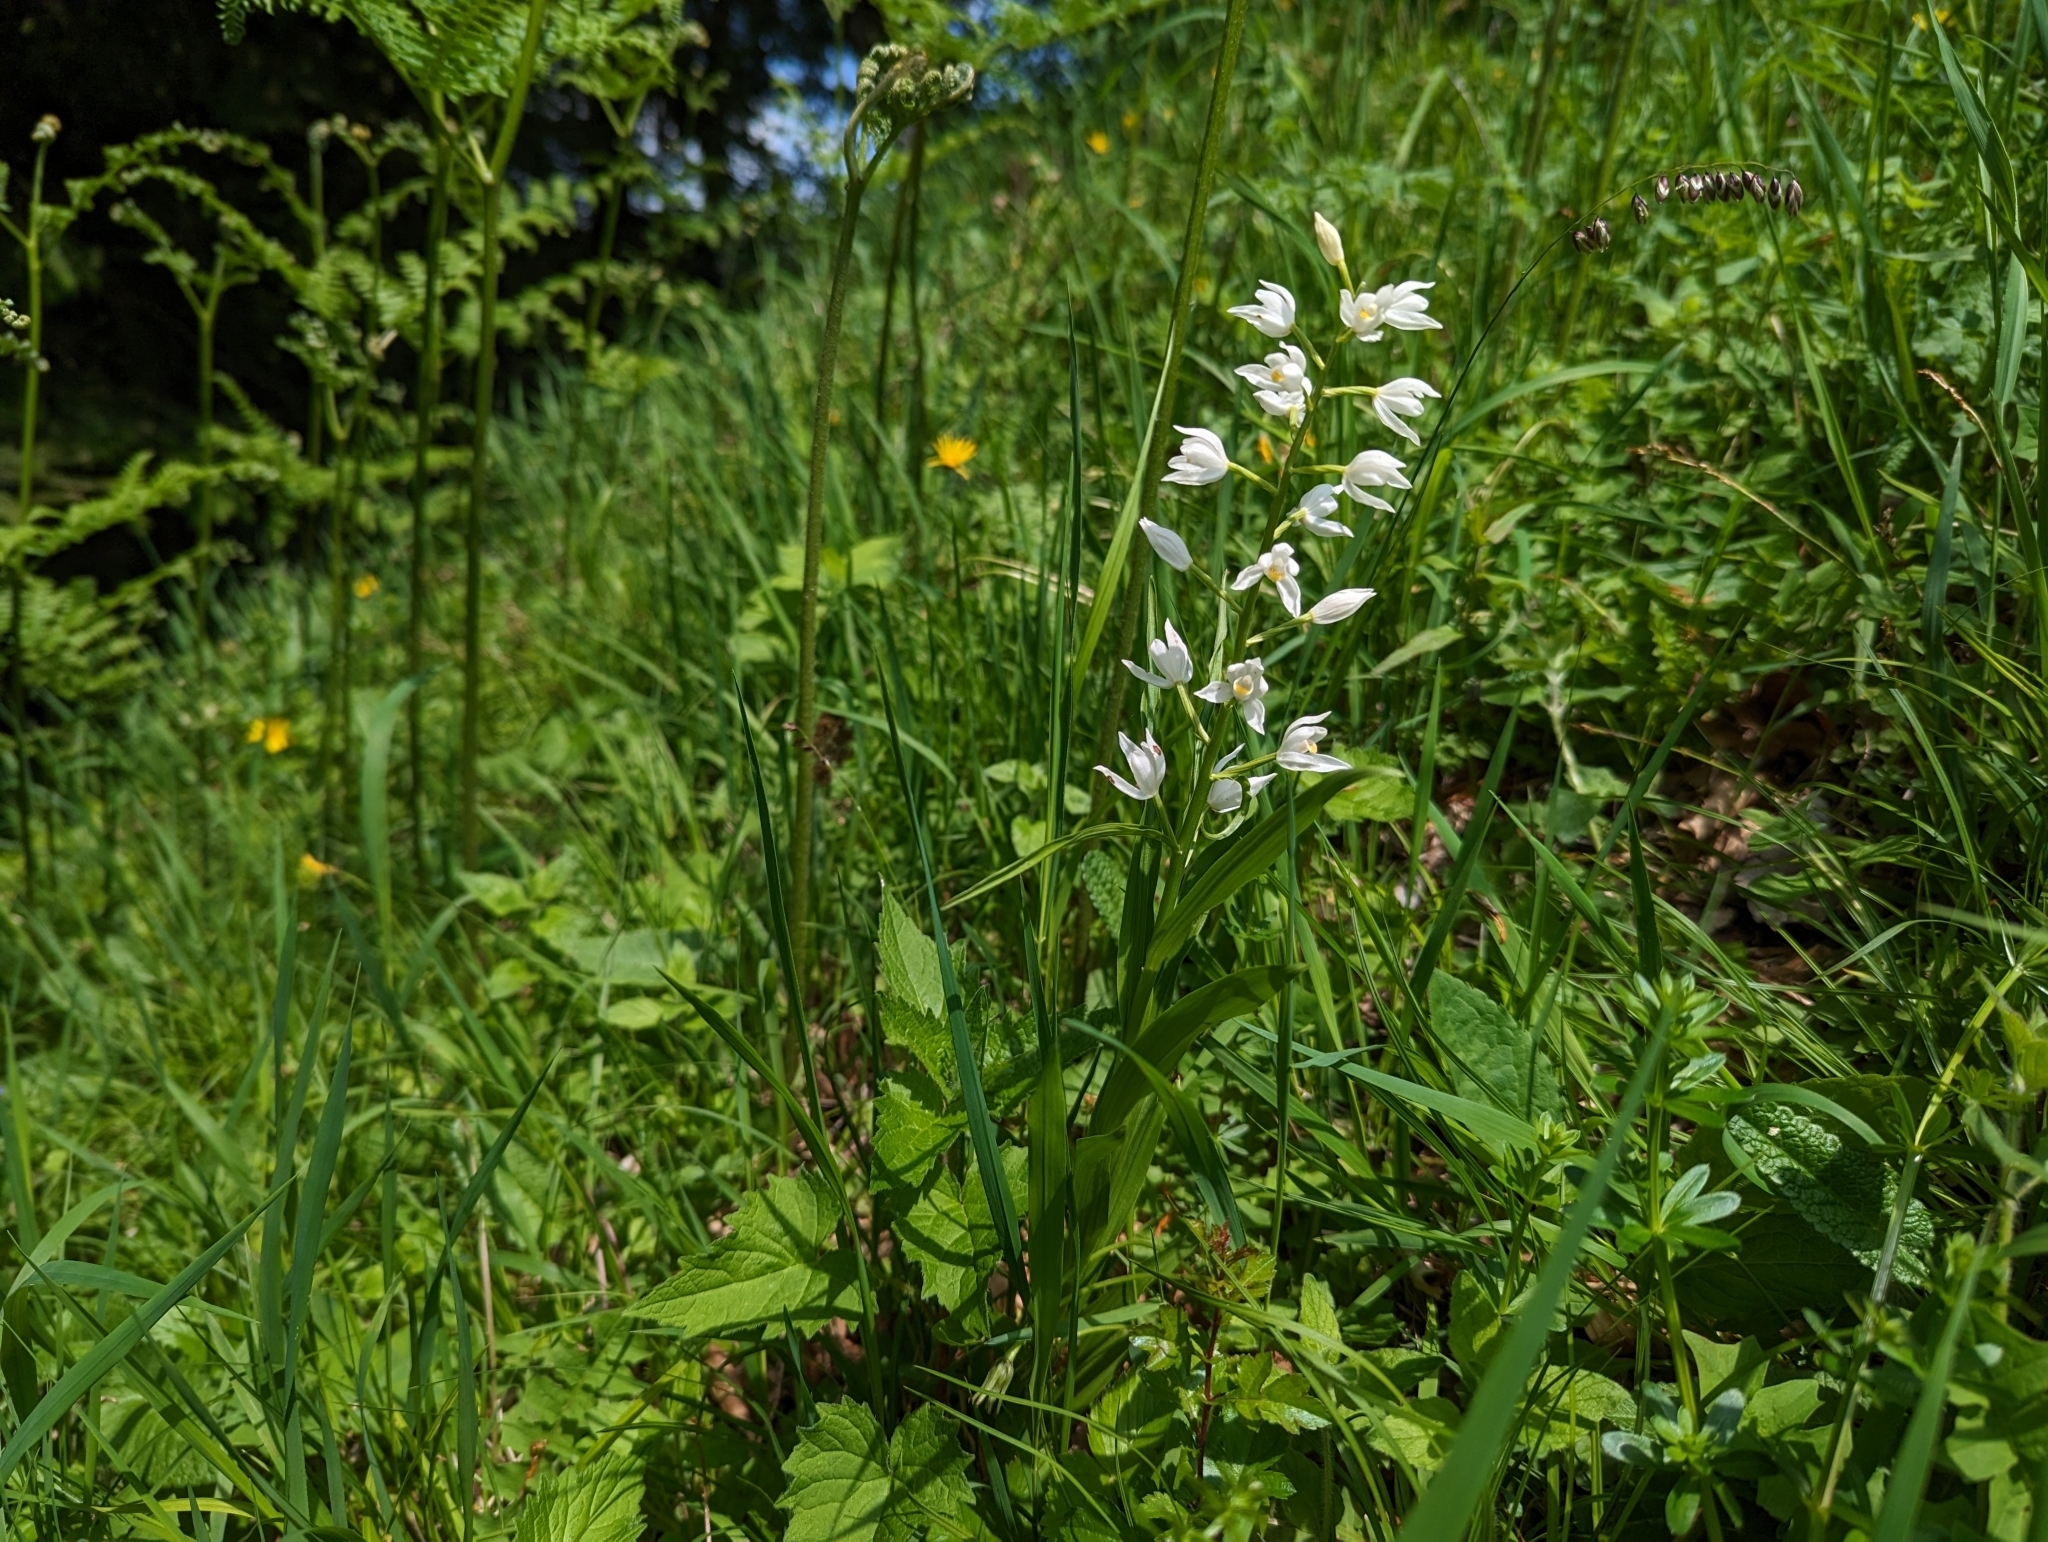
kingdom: Plantae
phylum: Tracheophyta
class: Liliopsida
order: Asparagales
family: Orchidaceae
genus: Cephalanthera
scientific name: Cephalanthera longifolia
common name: Narrow-leaved helleborine
